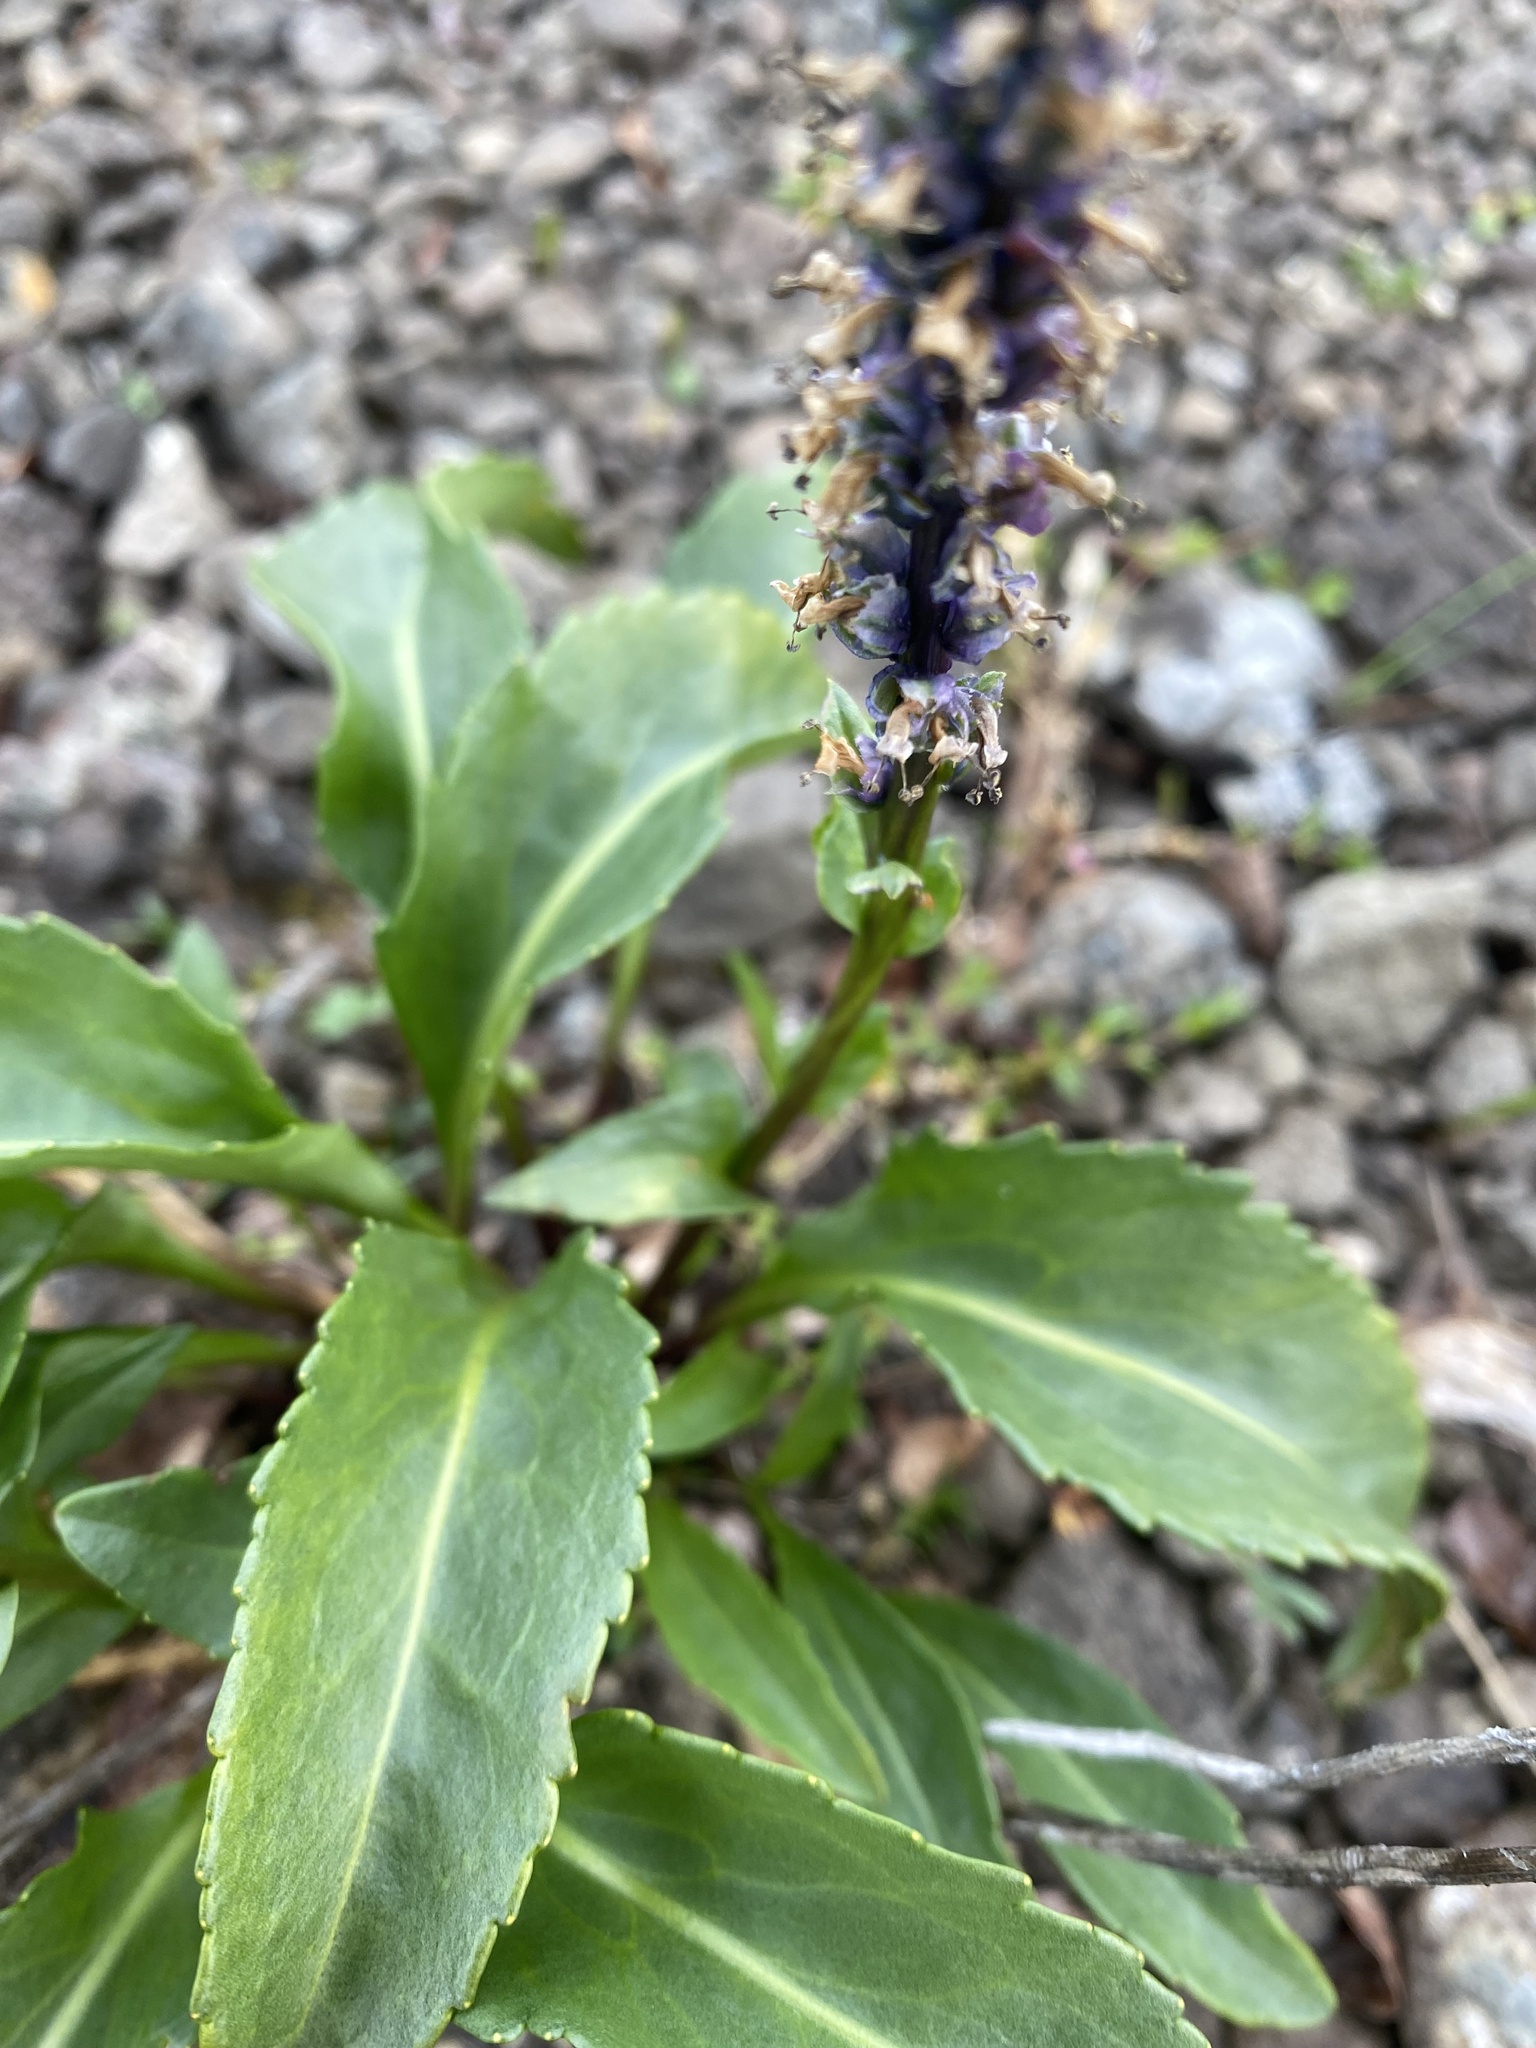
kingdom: Plantae
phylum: Tracheophyta
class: Magnoliopsida
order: Lamiales
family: Plantaginaceae
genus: Lagotis
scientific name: Lagotis glauca
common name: Glaucous weaselsnout
